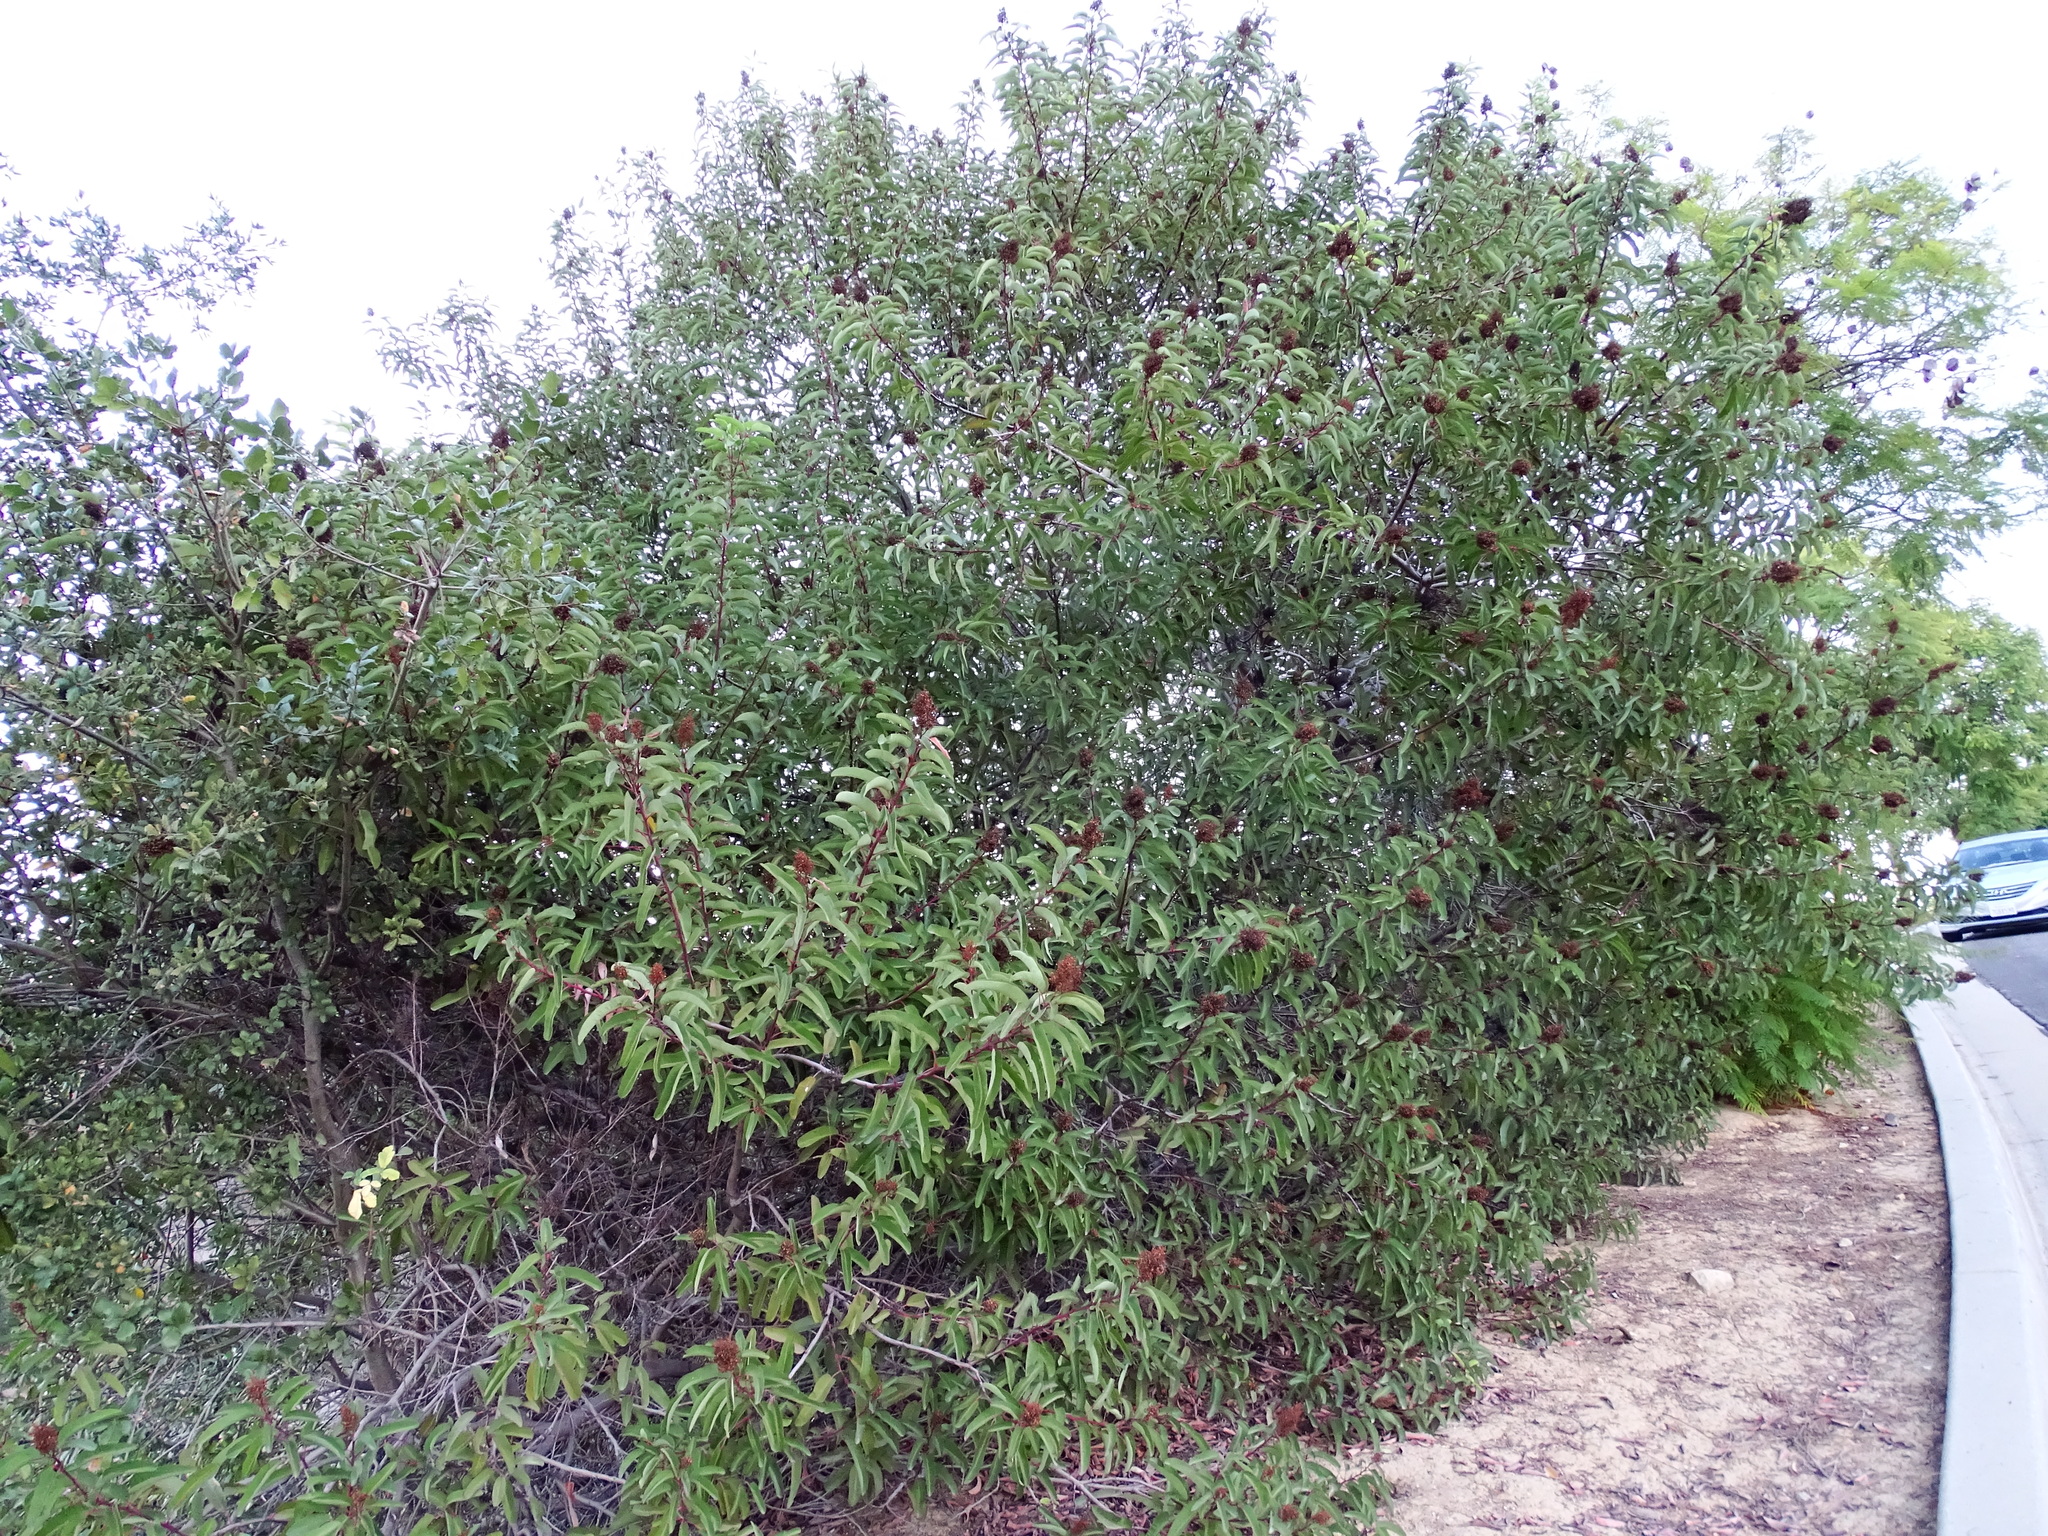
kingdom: Plantae
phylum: Tracheophyta
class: Magnoliopsida
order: Sapindales
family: Anacardiaceae
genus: Malosma
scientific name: Malosma laurina
